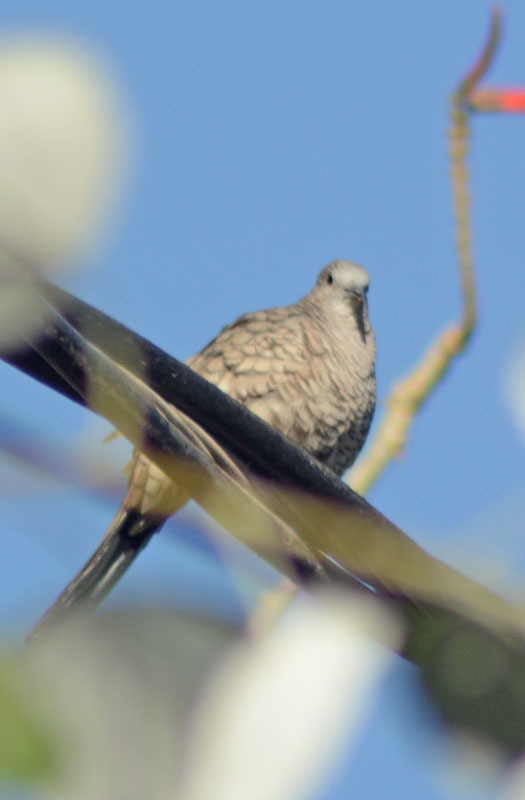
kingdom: Animalia
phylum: Chordata
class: Aves
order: Columbiformes
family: Columbidae
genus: Columbina
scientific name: Columbina inca
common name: Inca dove
